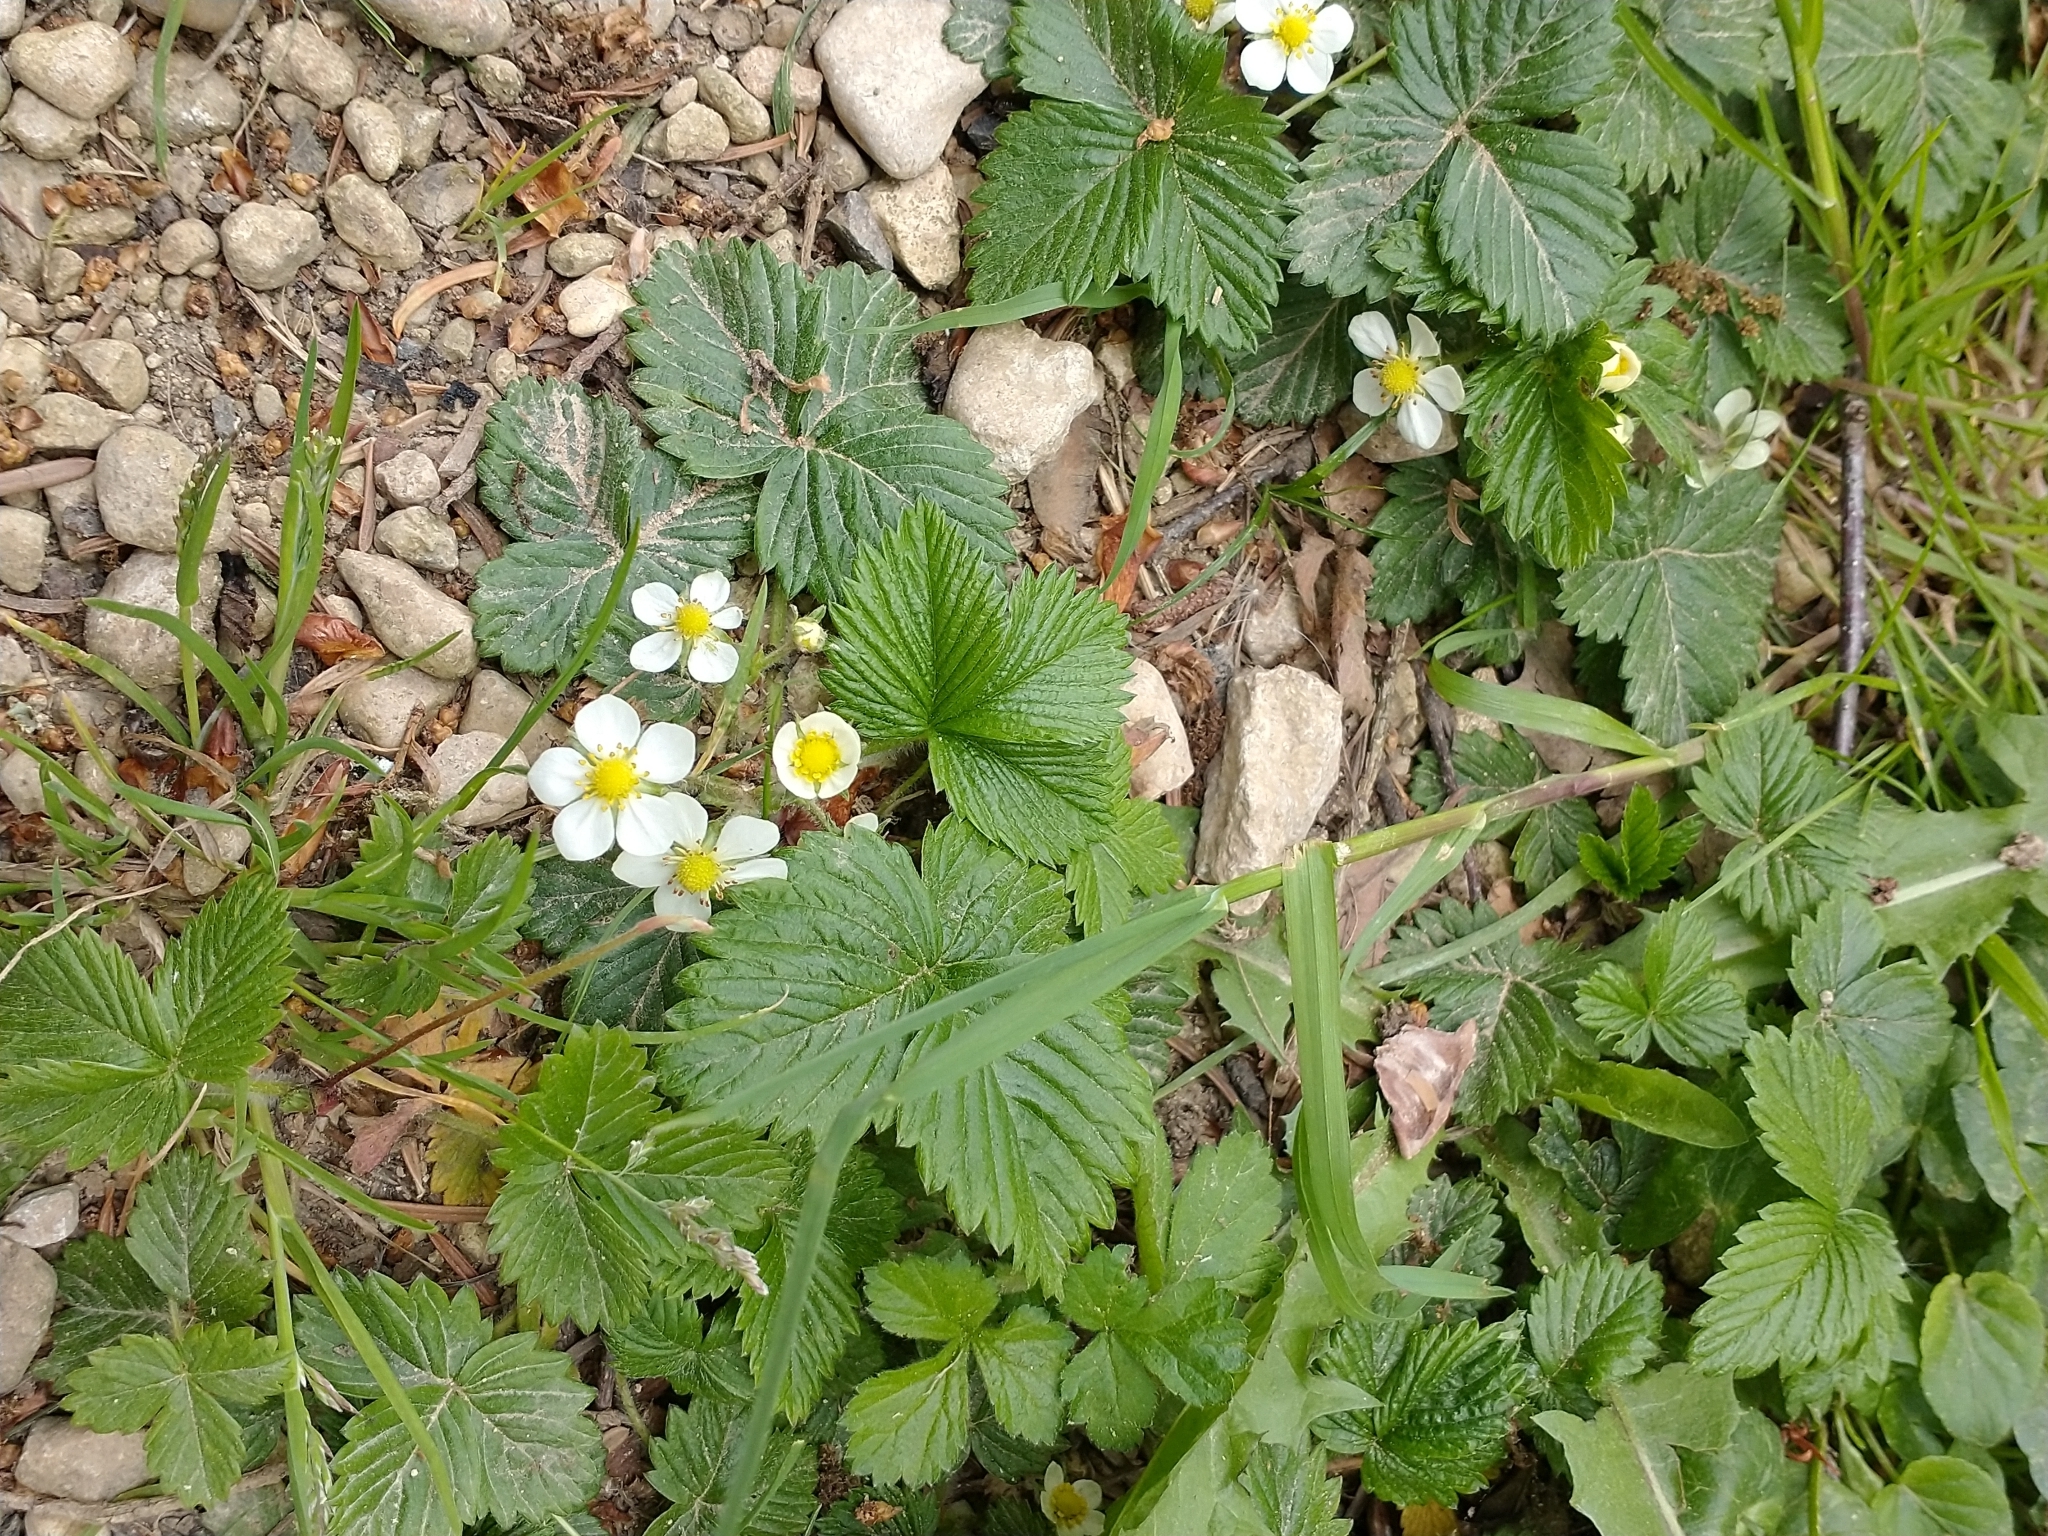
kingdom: Plantae
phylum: Tracheophyta
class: Magnoliopsida
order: Rosales
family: Rosaceae
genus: Fragaria
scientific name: Fragaria vesca
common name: Wild strawberry
